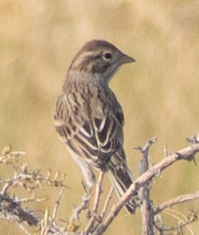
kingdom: Animalia
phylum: Chordata
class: Aves
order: Passeriformes
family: Passerellidae
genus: Spizella
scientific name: Spizella breweri
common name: Brewer's sparrow
